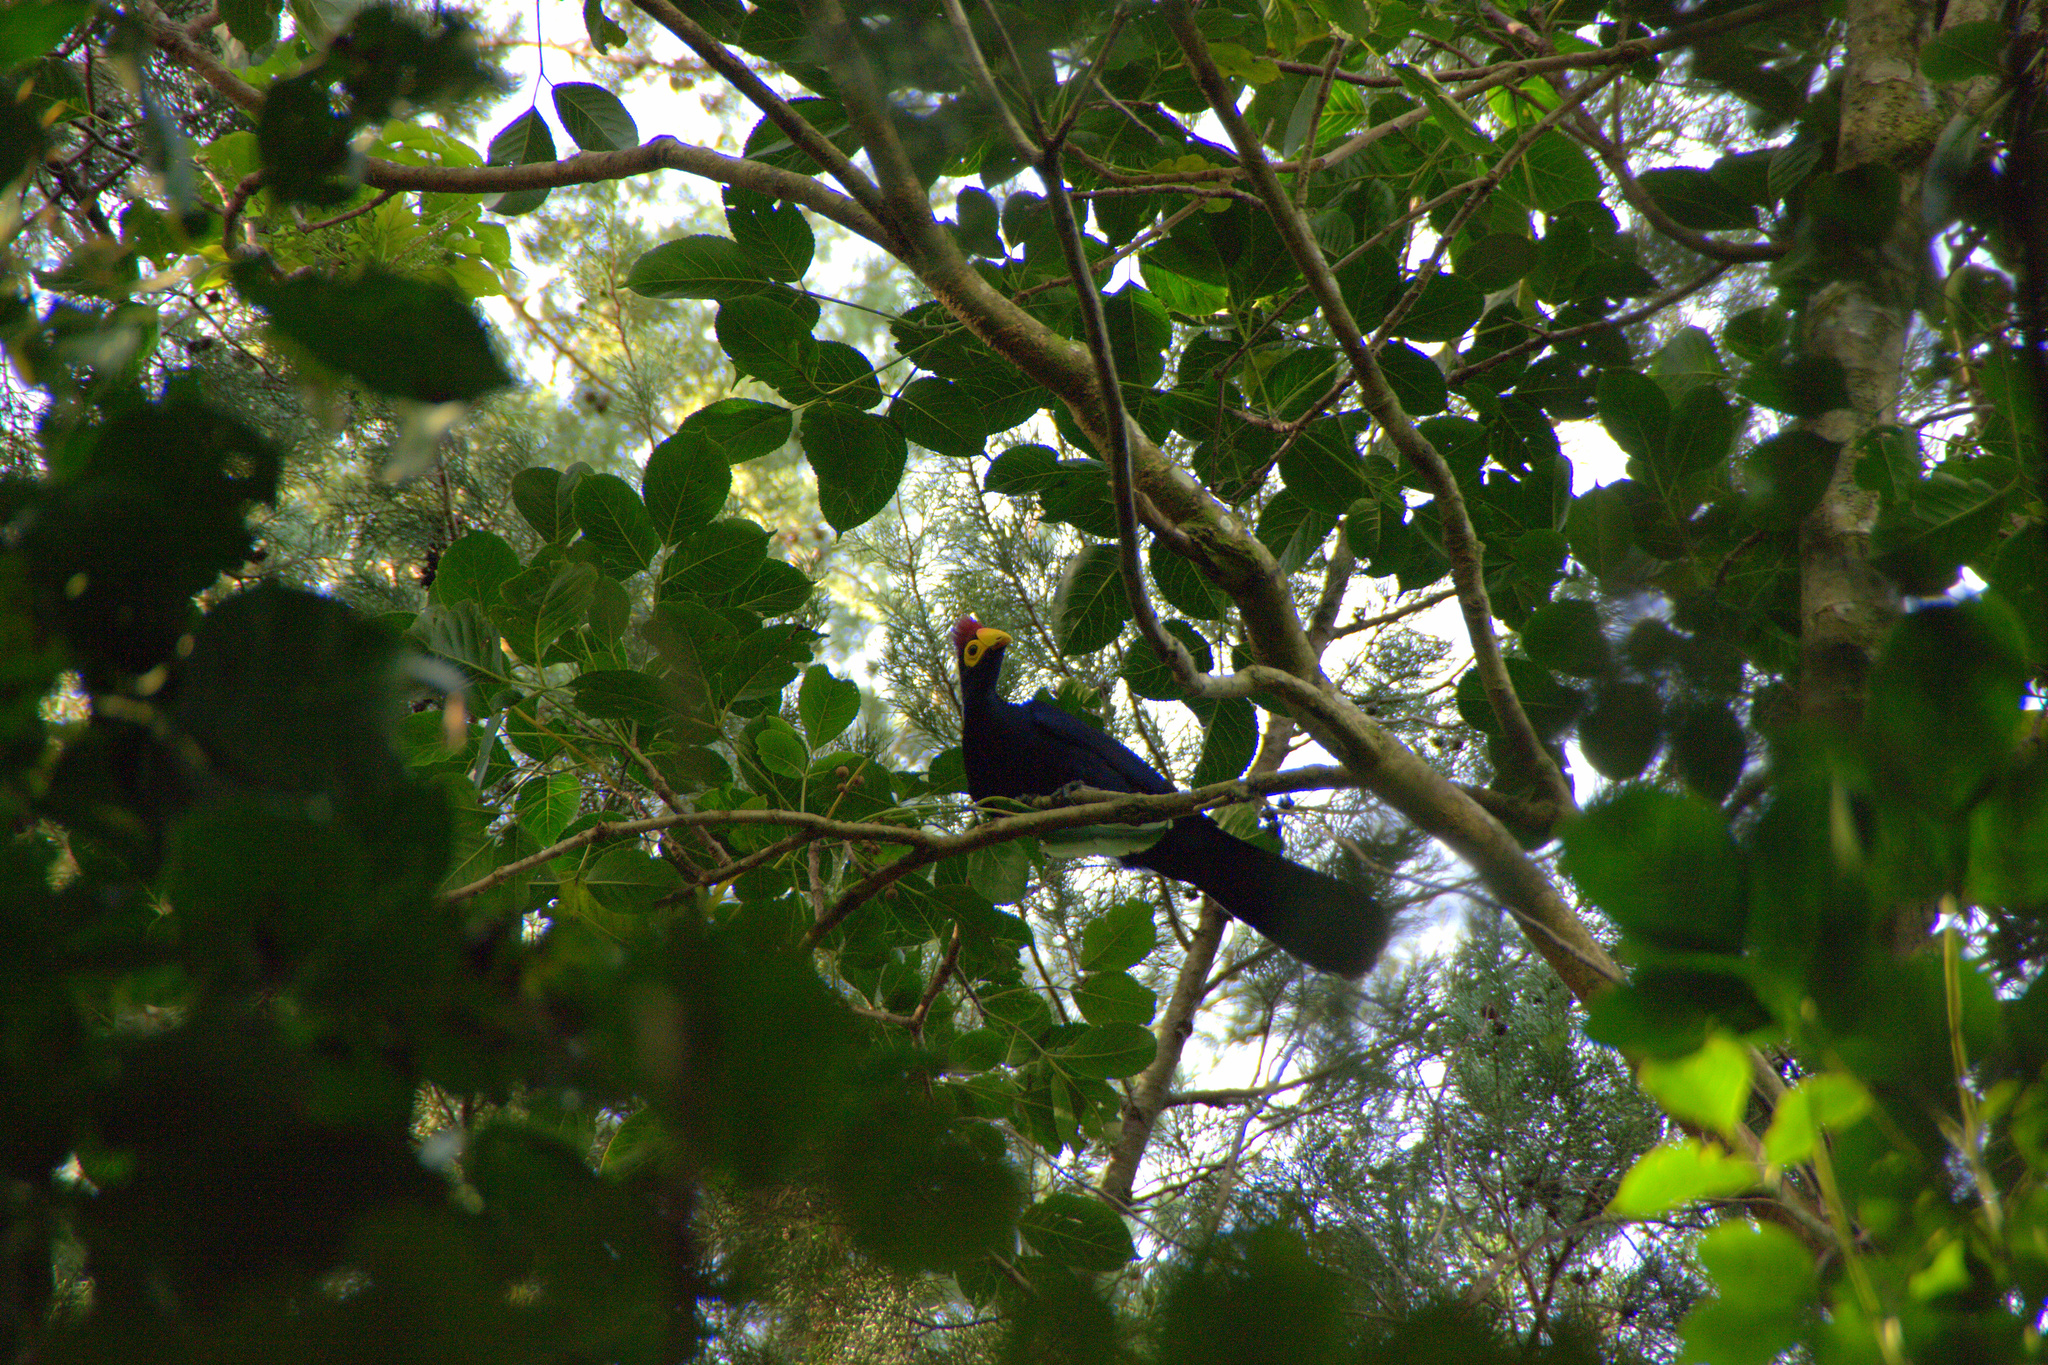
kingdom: Animalia
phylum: Chordata
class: Aves
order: Musophagiformes
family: Musophagidae
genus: Musophaga
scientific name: Musophaga rossae
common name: Ross's turaco
